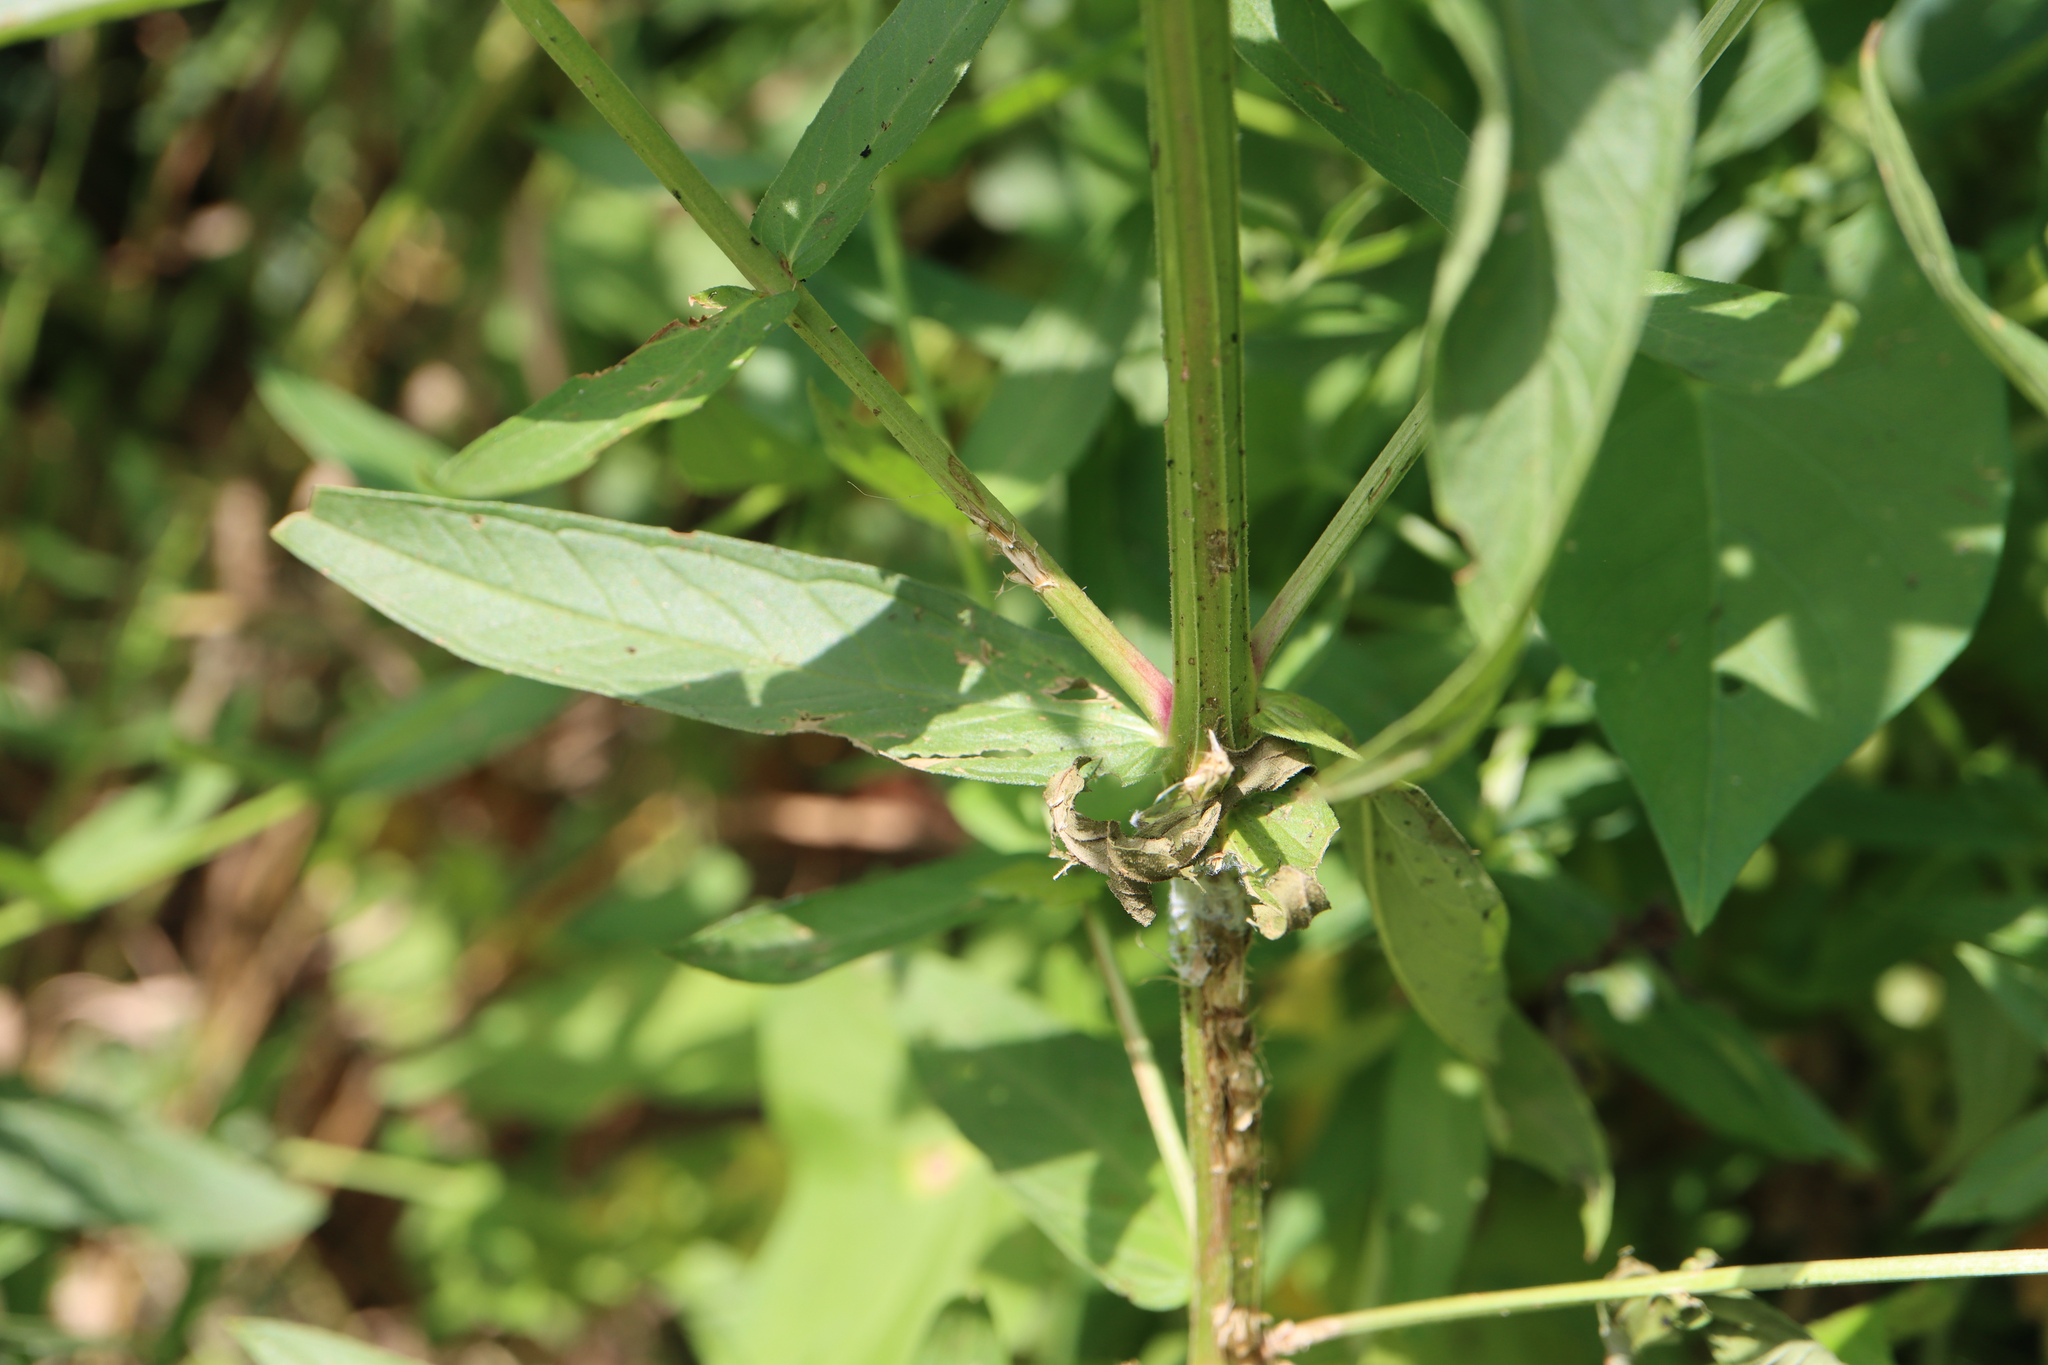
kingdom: Plantae
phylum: Tracheophyta
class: Magnoliopsida
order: Myrtales
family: Lythraceae
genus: Lythrum
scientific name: Lythrum salicaria
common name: Purple loosestrife
